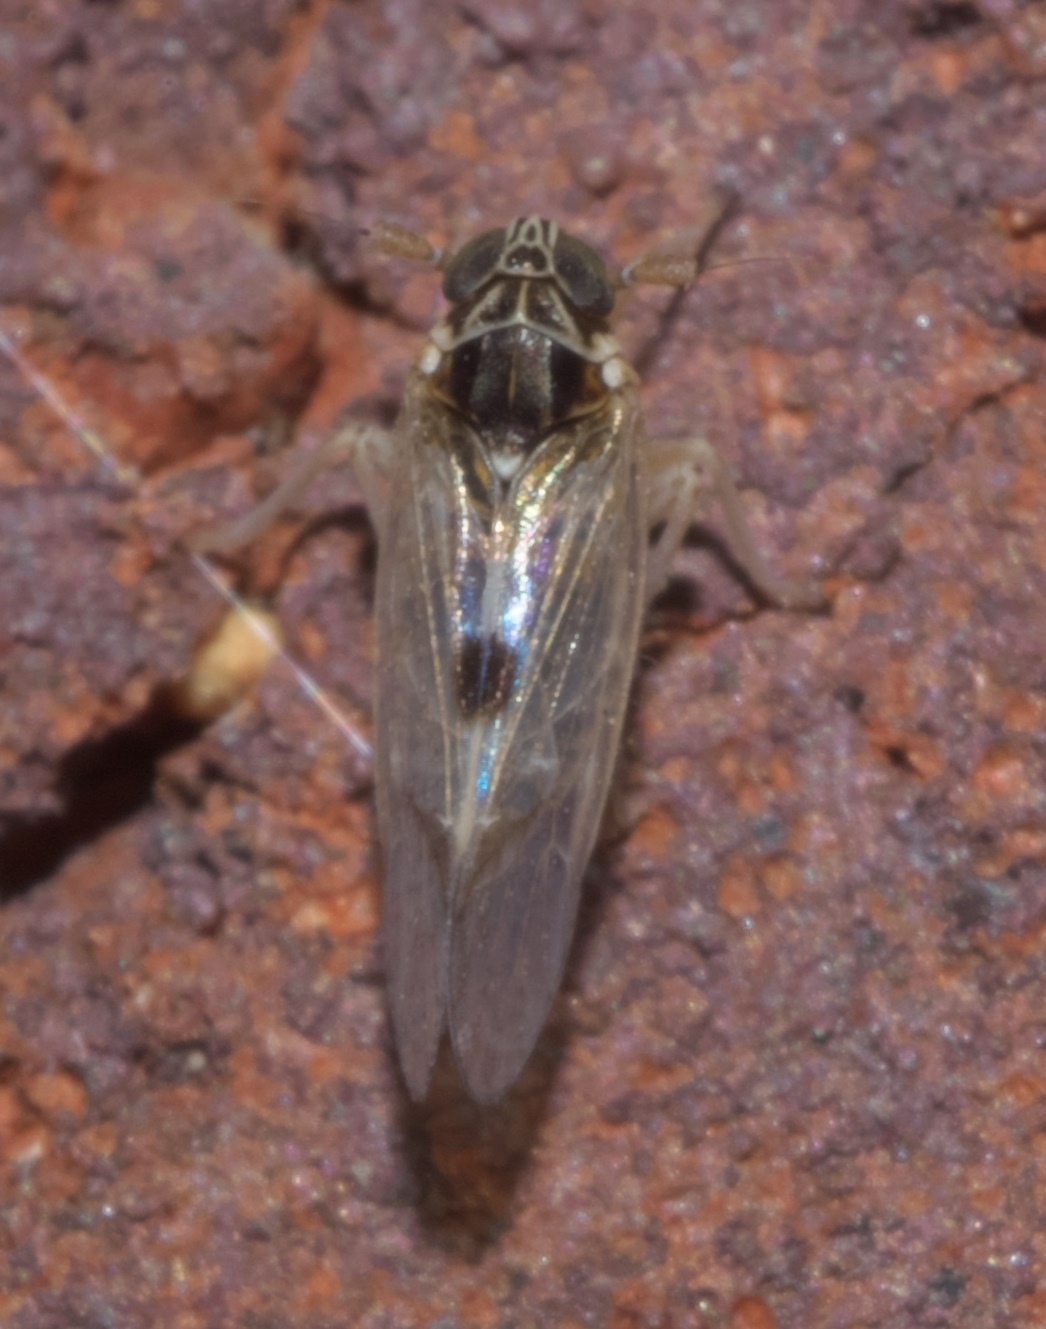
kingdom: Animalia
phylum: Arthropoda
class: Insecta
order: Hemiptera
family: Delphacidae
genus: Chionomus
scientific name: Chionomus
